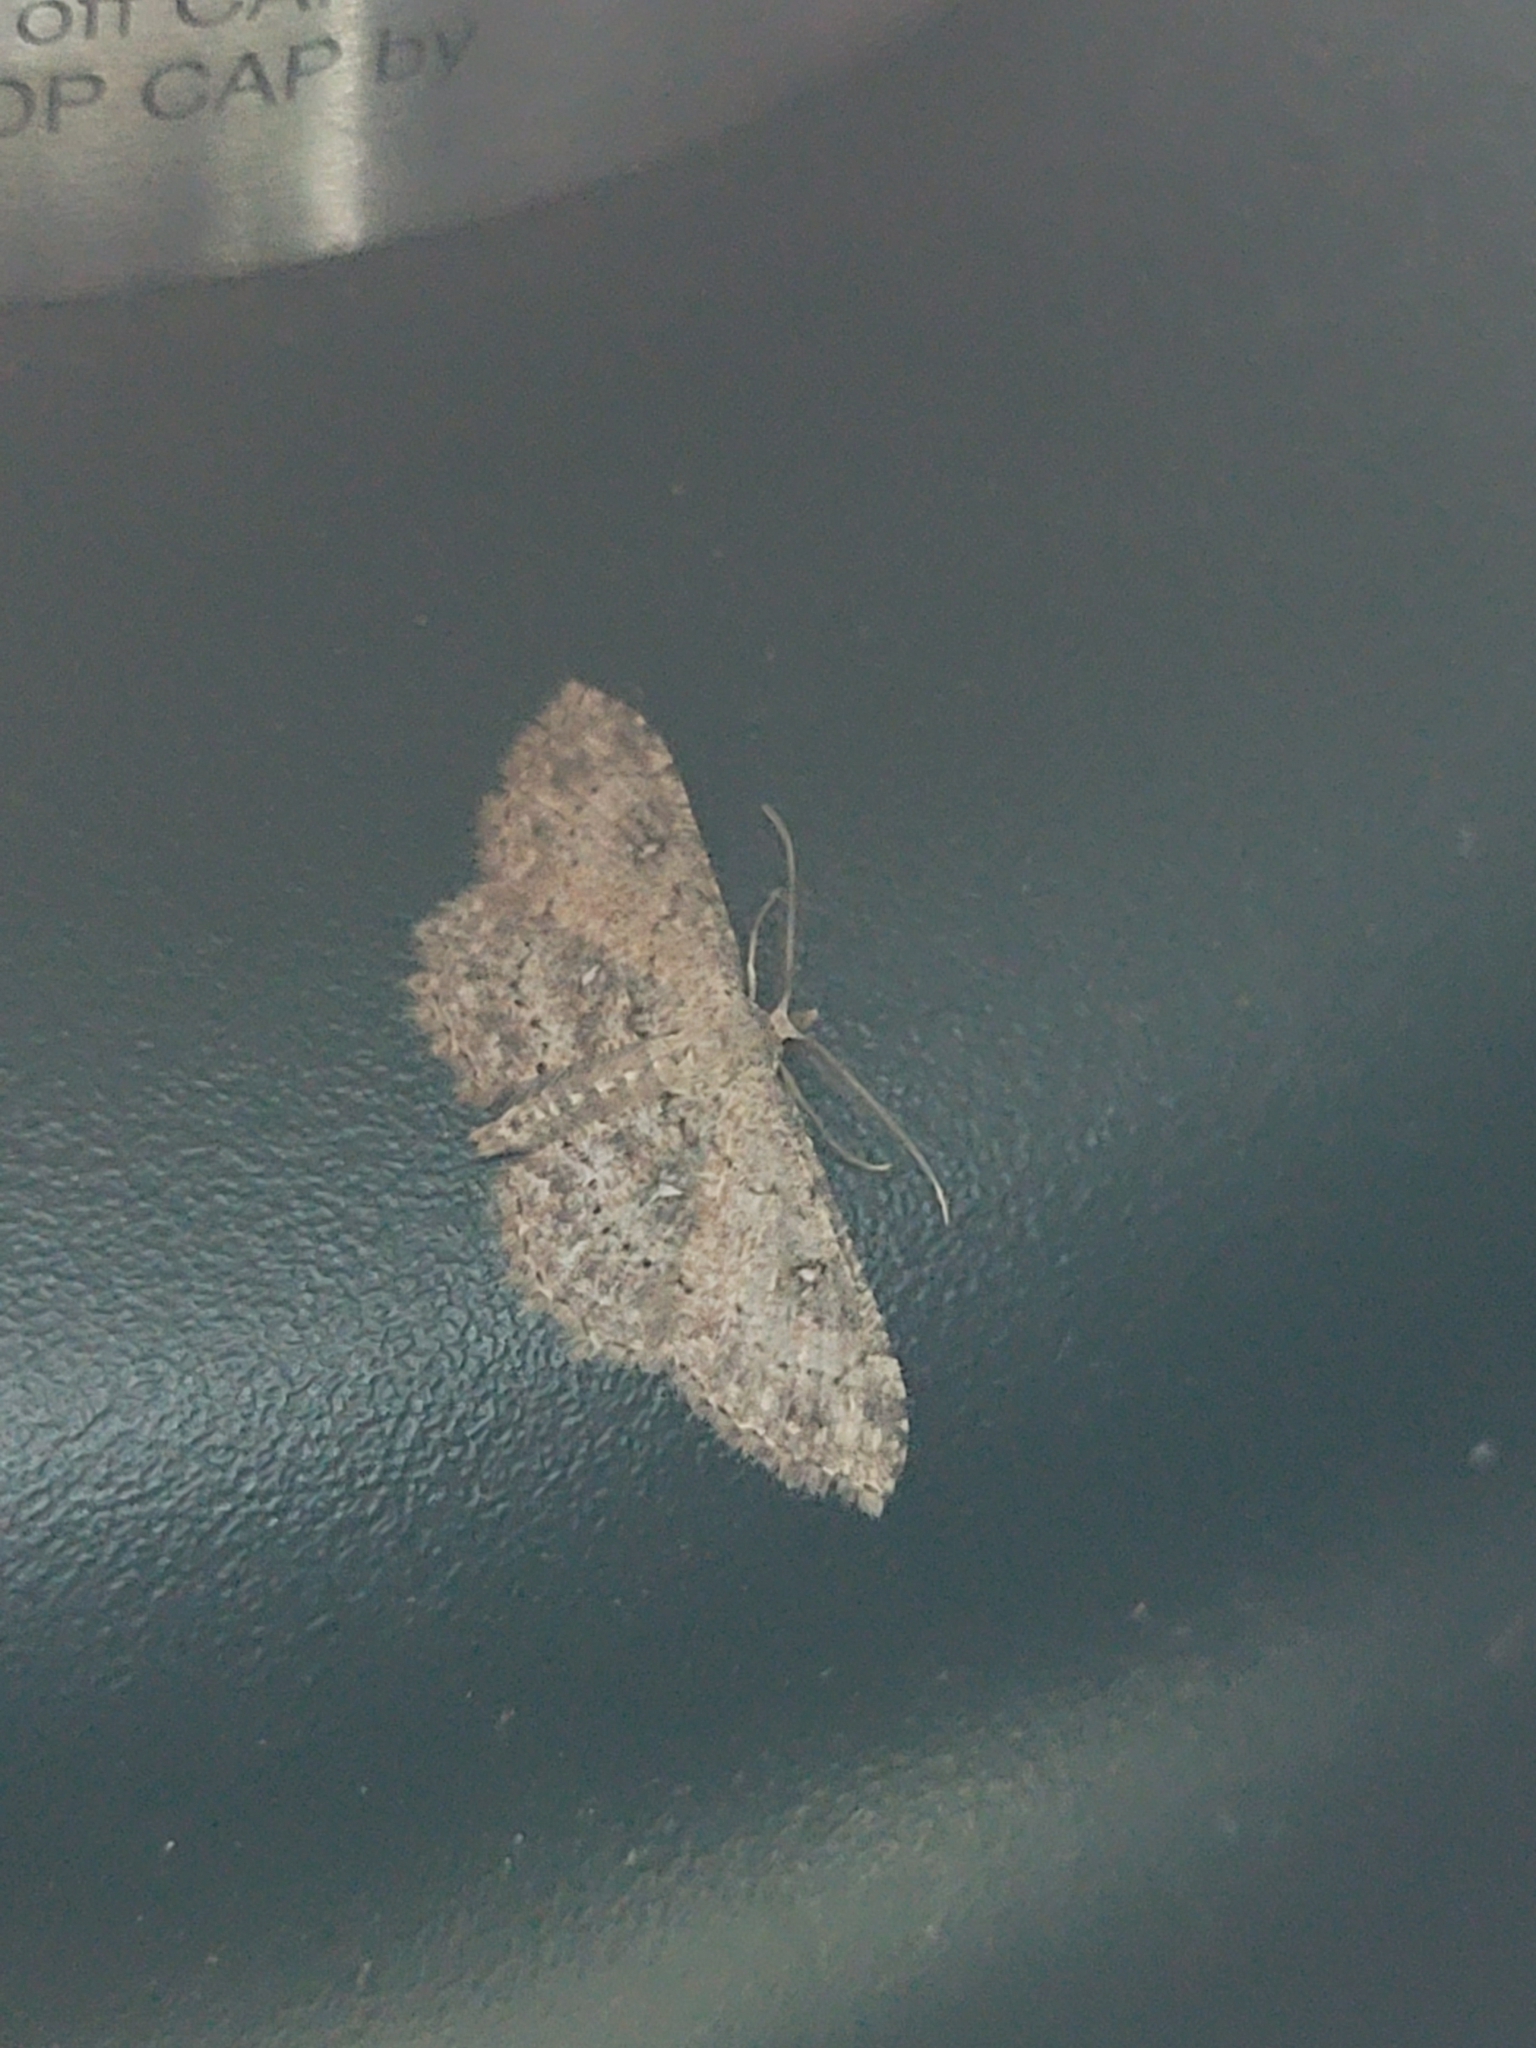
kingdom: Animalia
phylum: Arthropoda
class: Insecta
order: Lepidoptera
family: Geometridae
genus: Cyclophora
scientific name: Cyclophora nanaria
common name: Cankerworm
